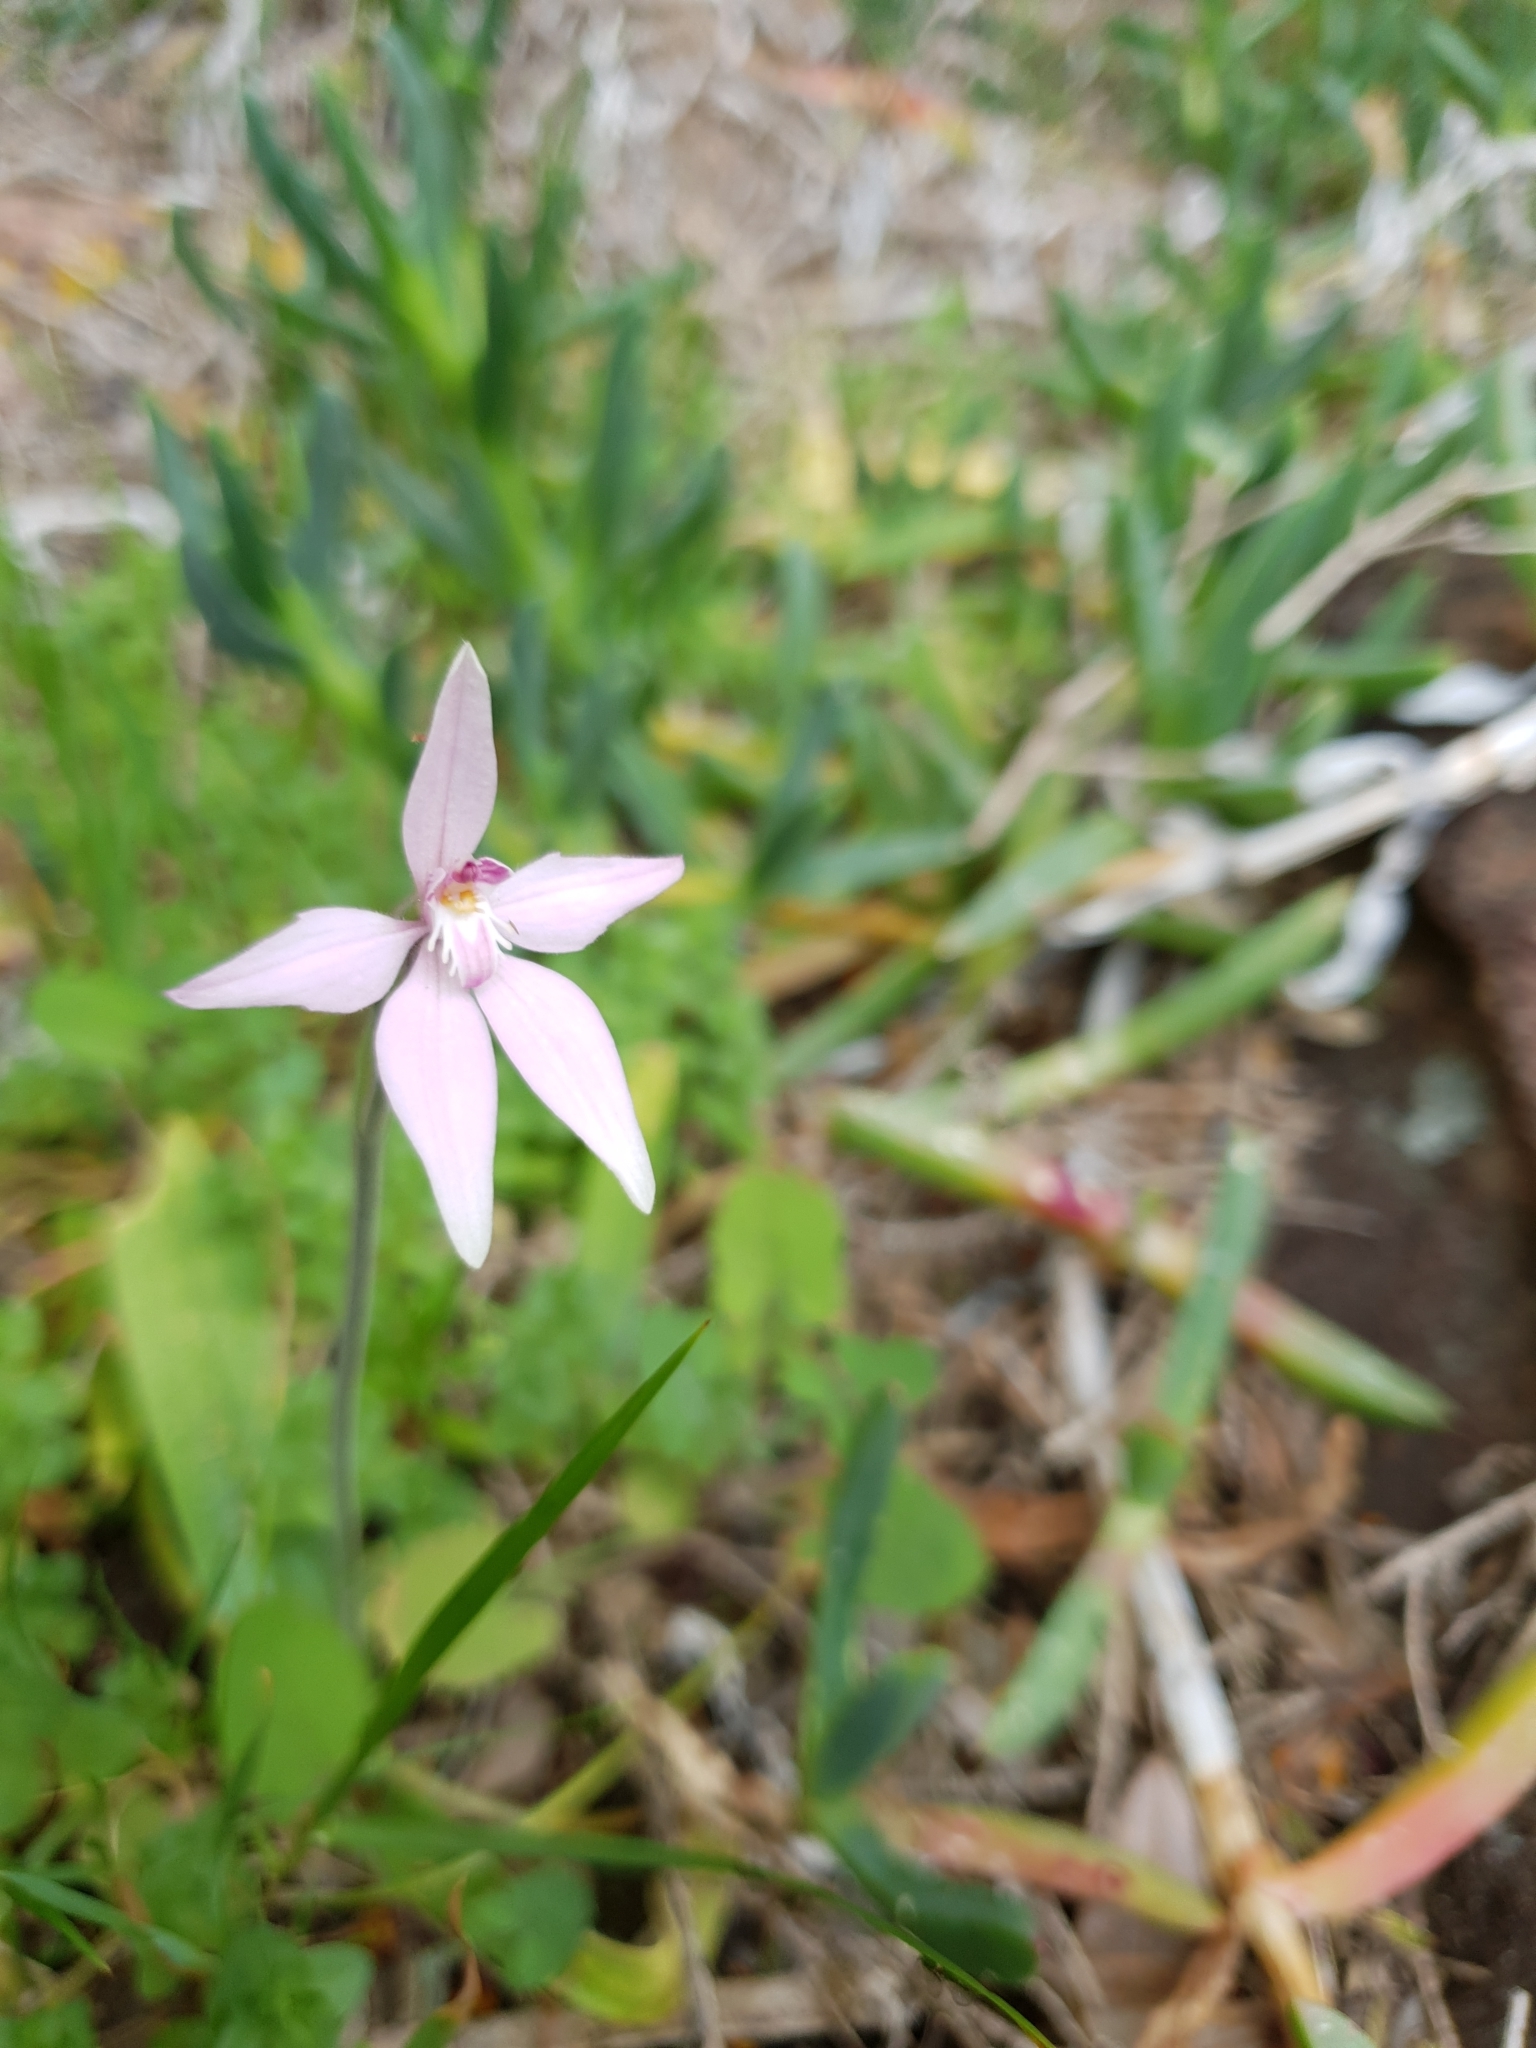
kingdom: Plantae
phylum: Tracheophyta
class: Liliopsida
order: Asparagales
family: Orchidaceae
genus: Caladenia
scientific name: Caladenia latifolia
